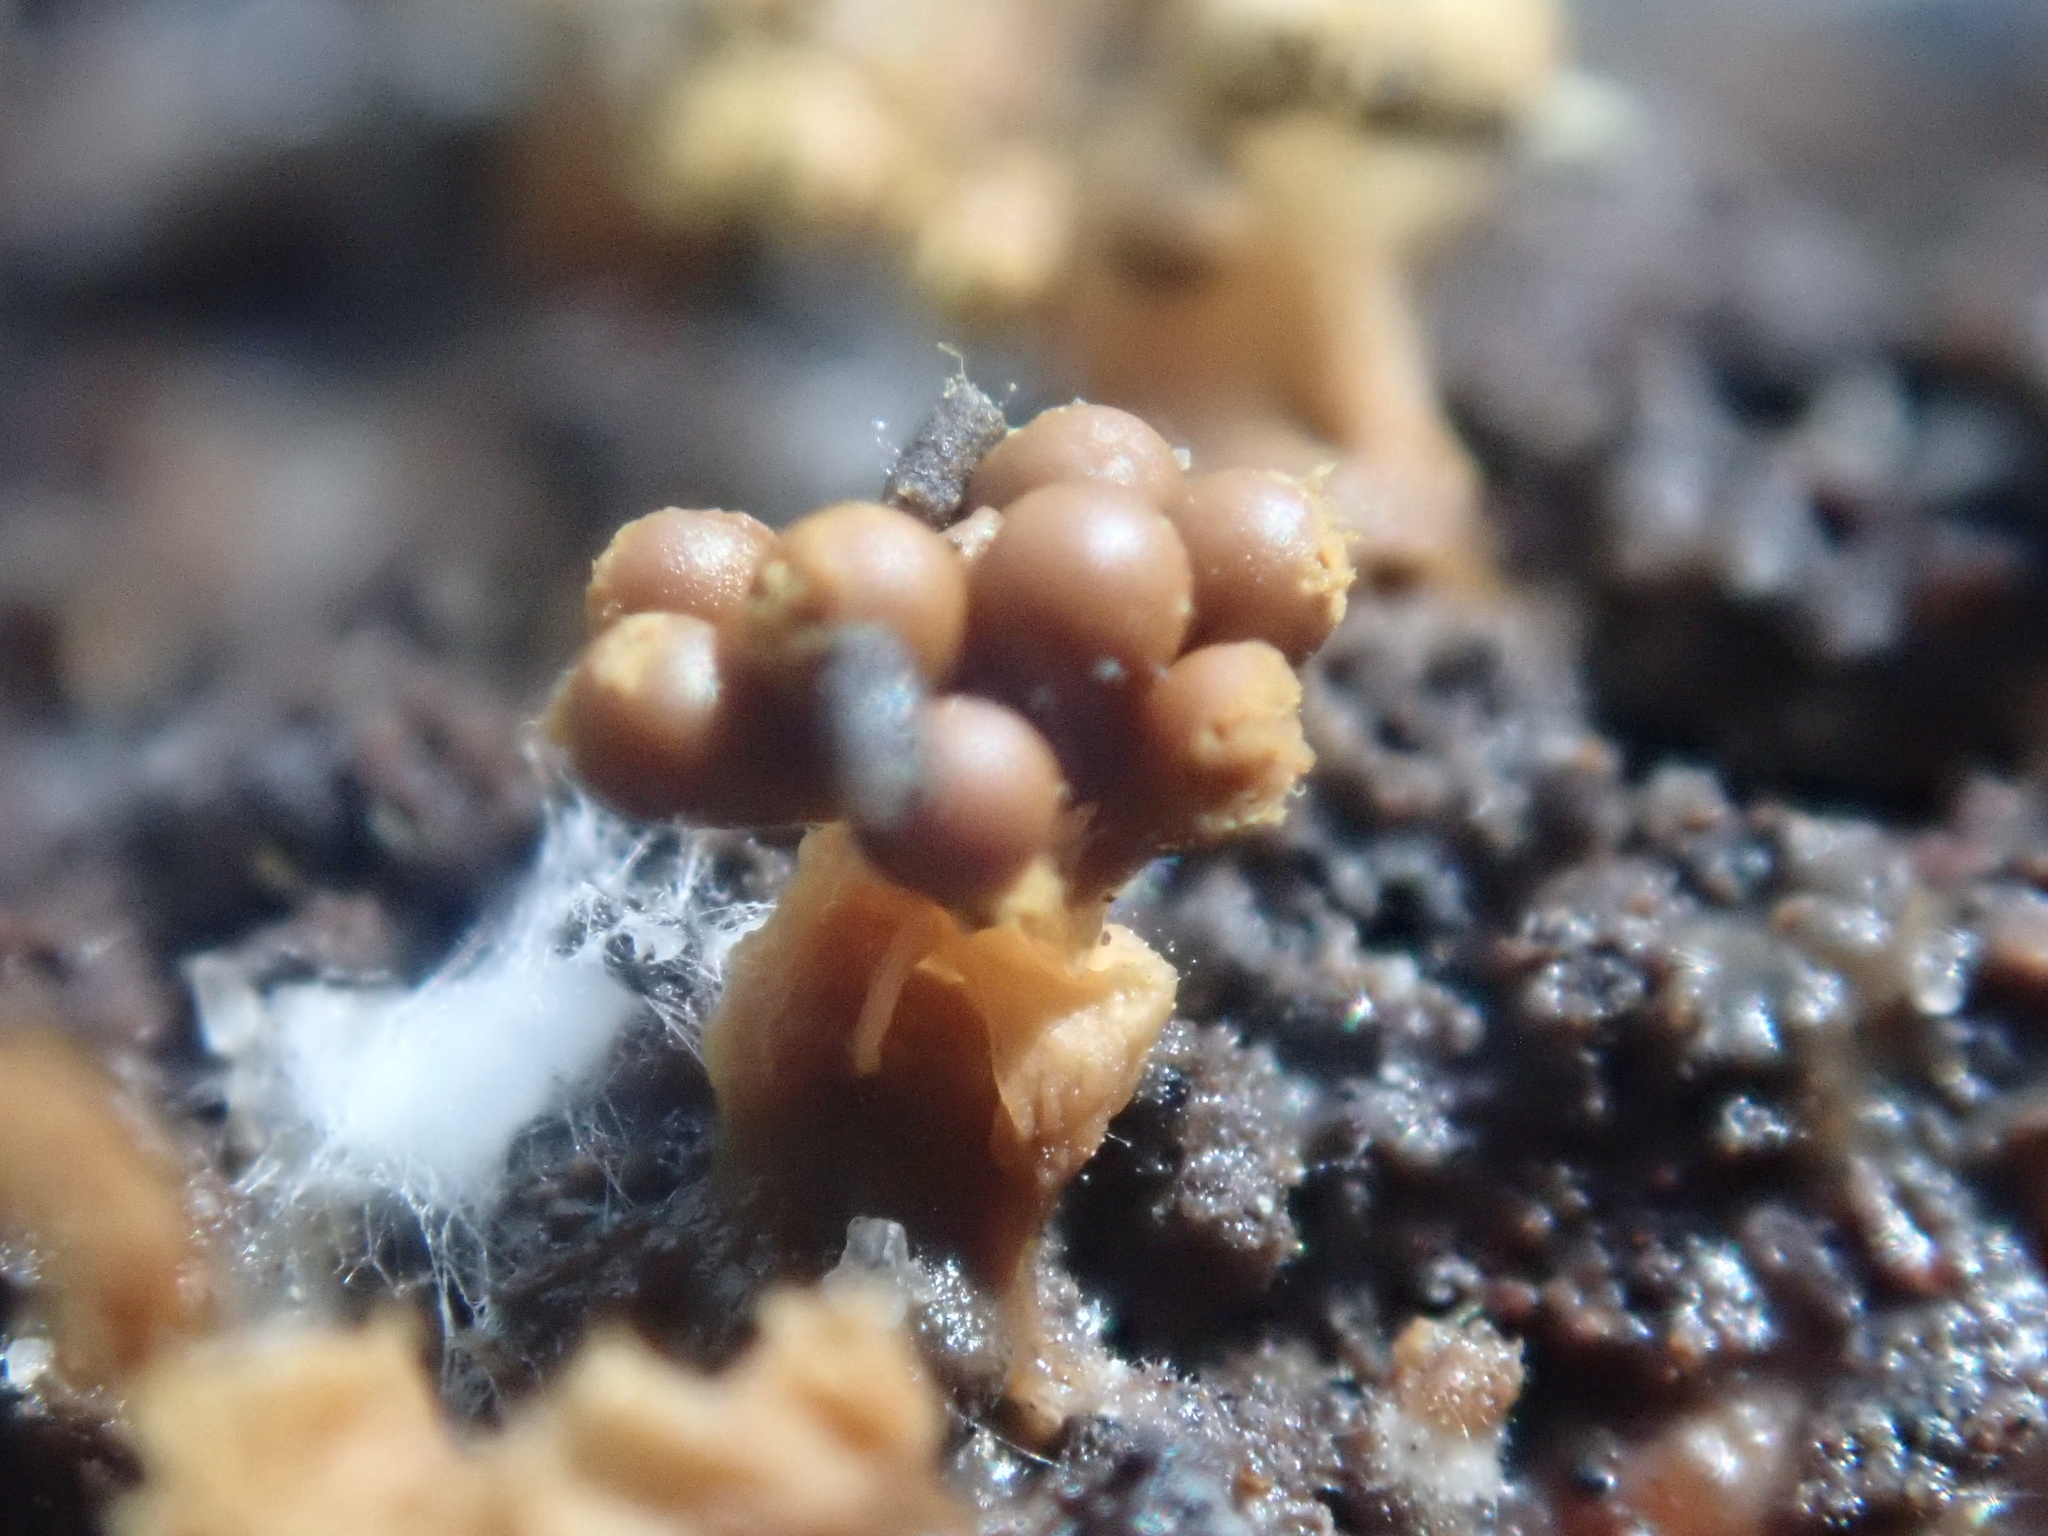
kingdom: Protozoa
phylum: Mycetozoa
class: Myxomycetes
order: Trichiales
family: Trichiaceae
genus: Oligonema
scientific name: Oligonema verrucosum
